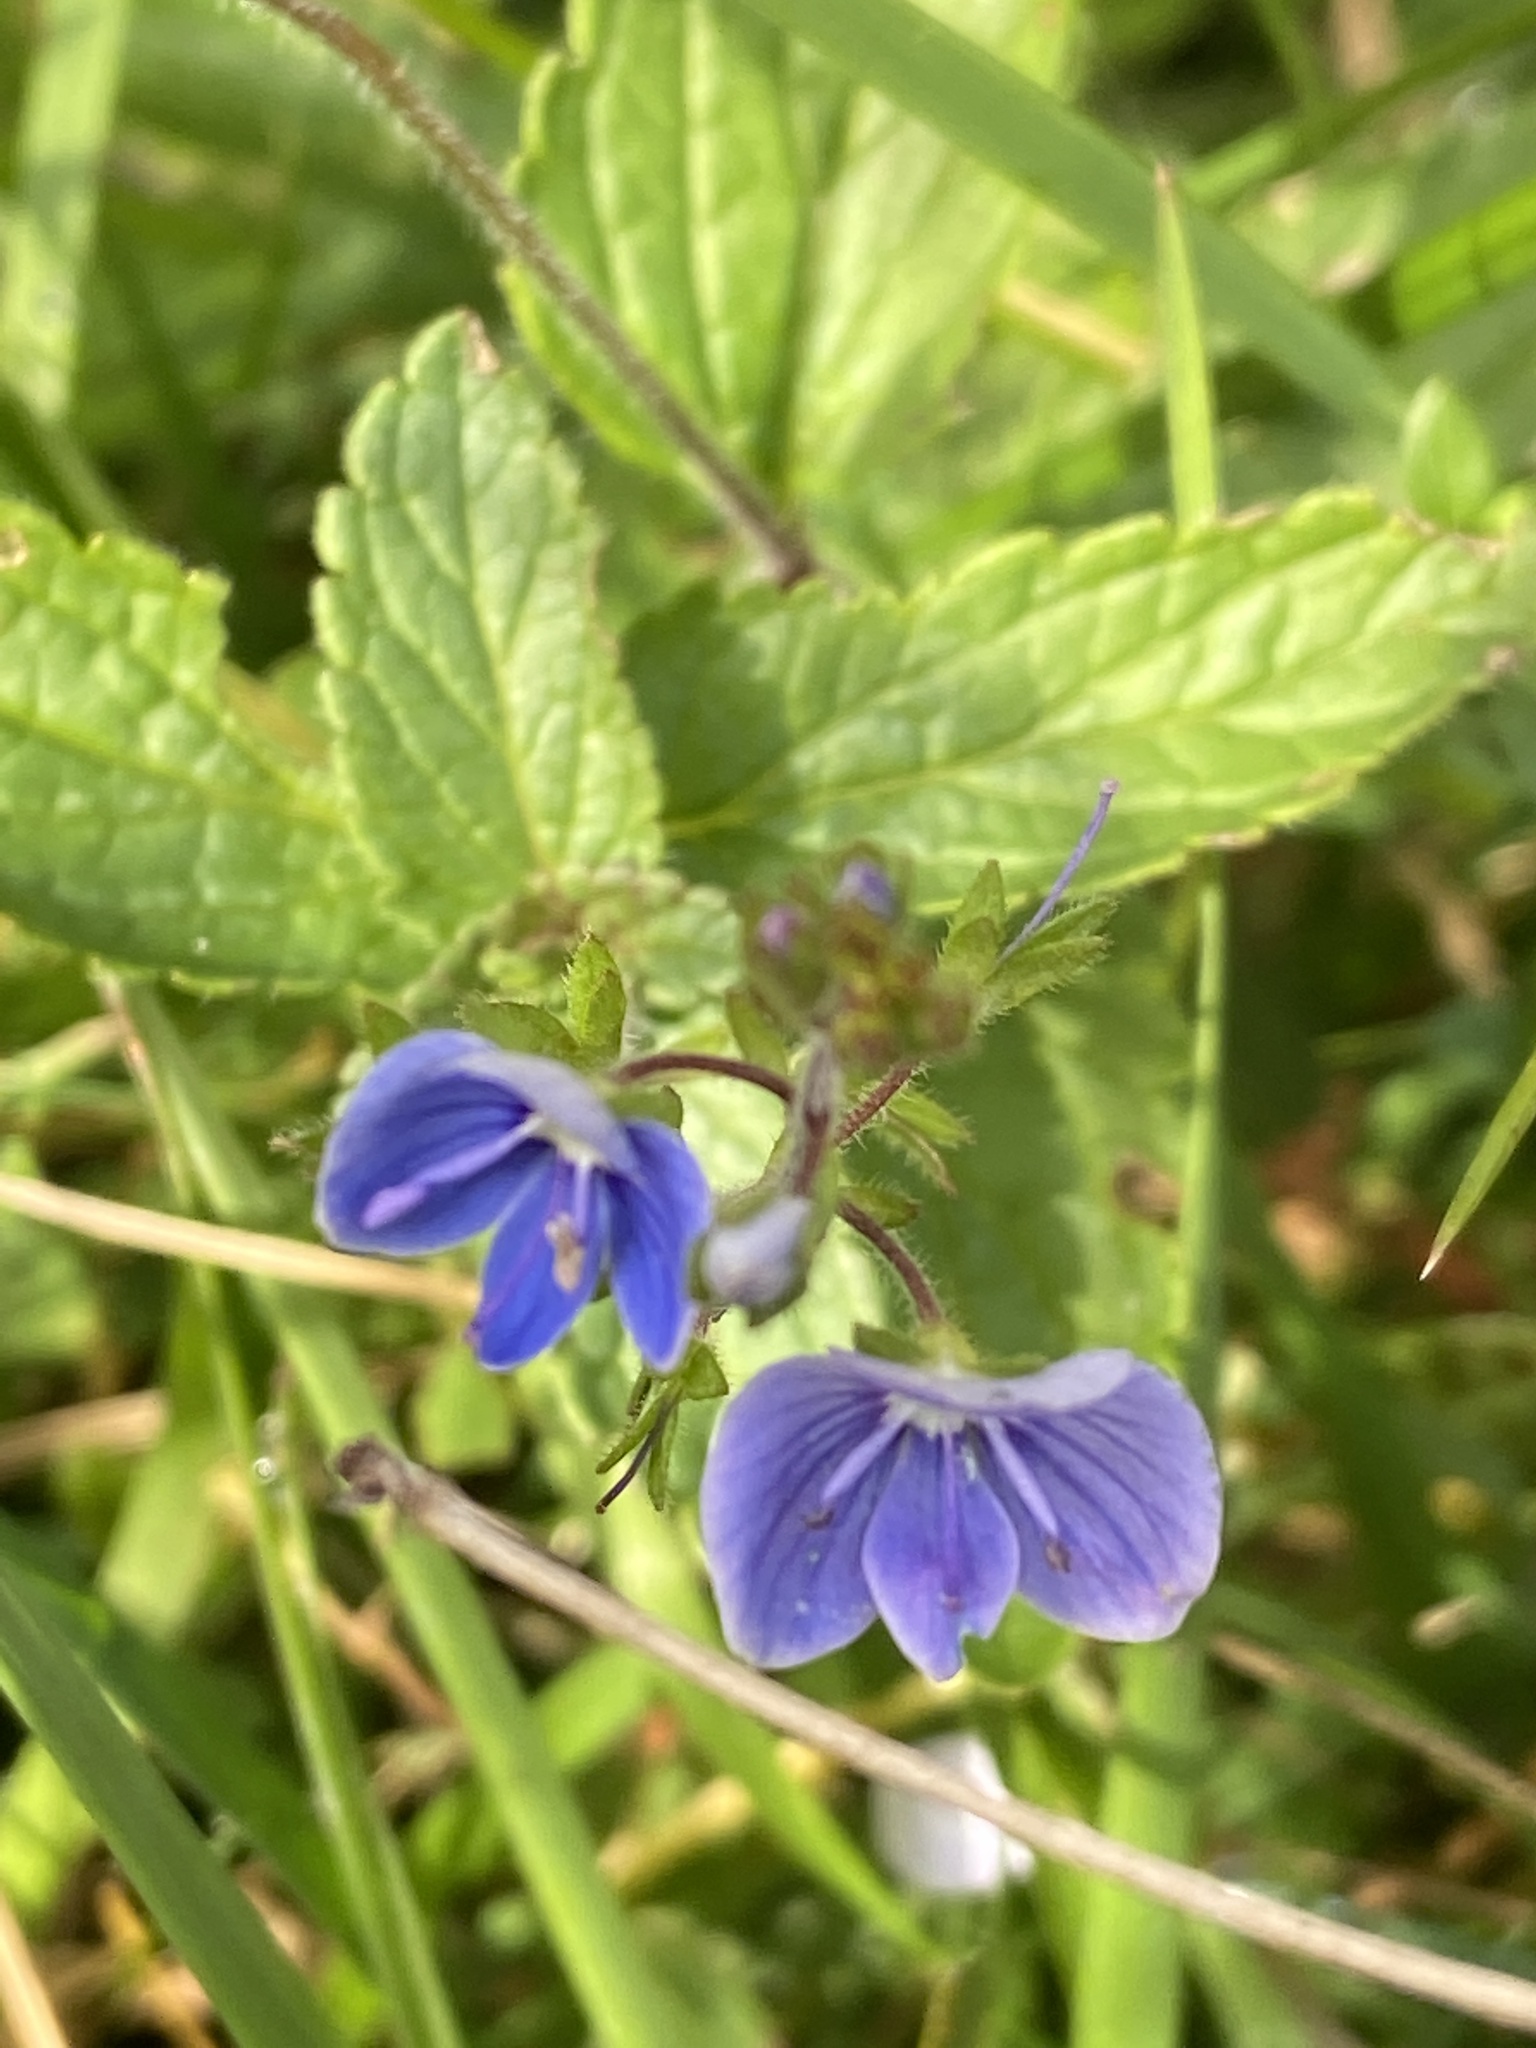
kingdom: Plantae
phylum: Tracheophyta
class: Magnoliopsida
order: Lamiales
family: Plantaginaceae
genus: Veronica
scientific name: Veronica chamaedrys
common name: Germander speedwell
